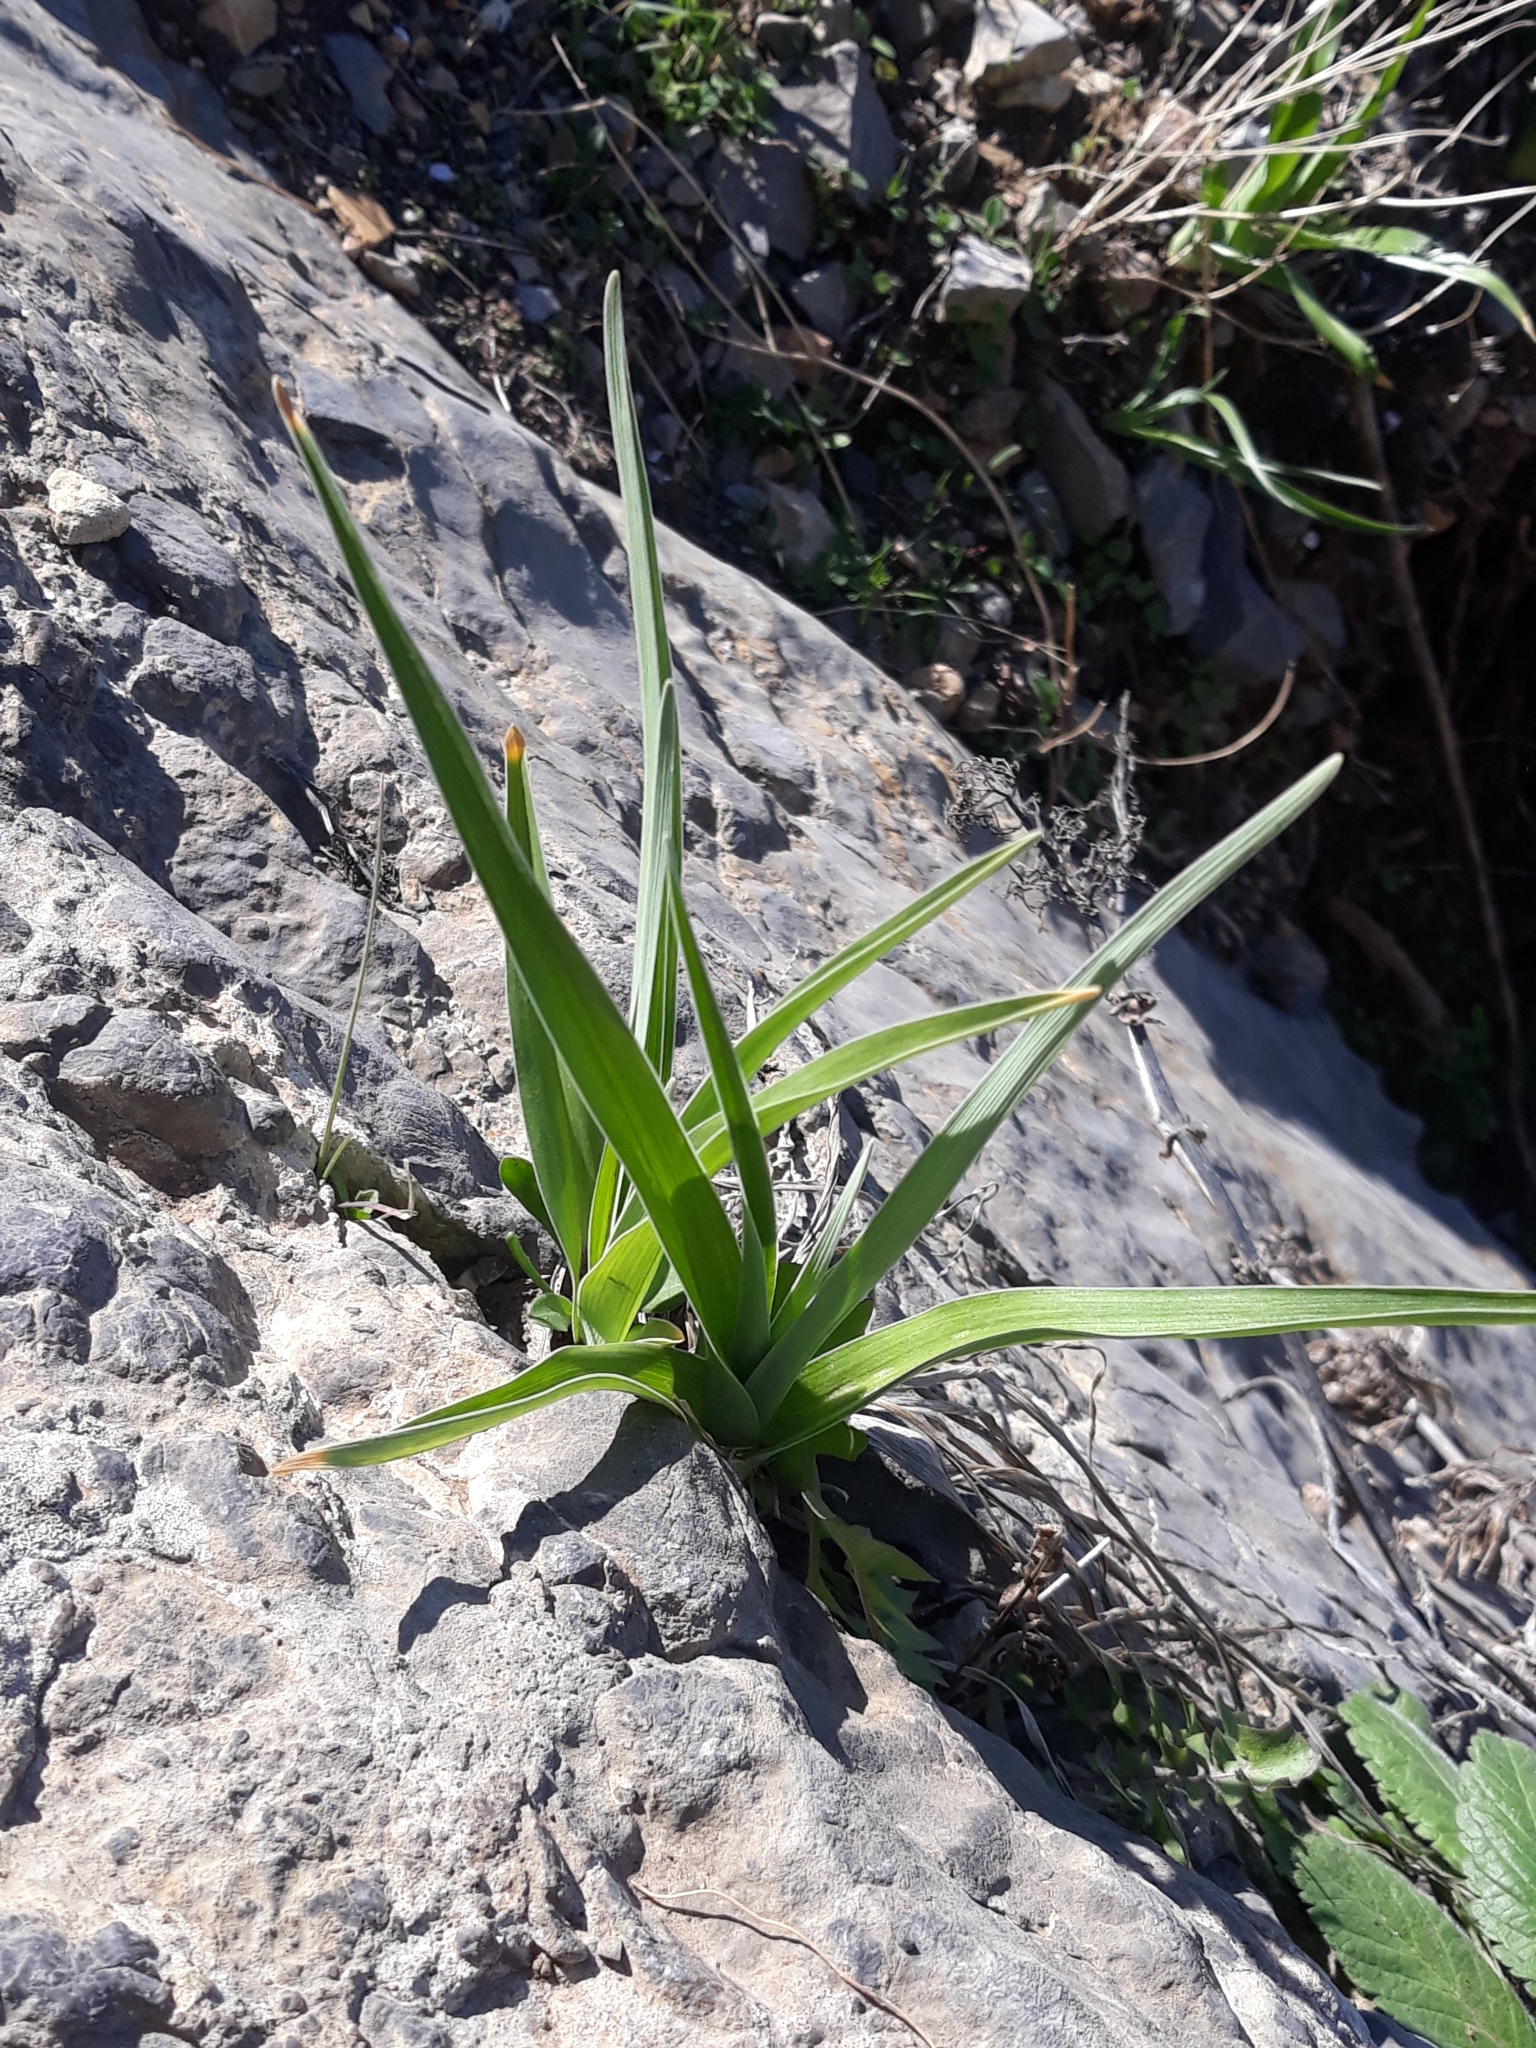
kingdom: Plantae
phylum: Tracheophyta
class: Liliopsida
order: Asparagales
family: Iridaceae
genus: Iris
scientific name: Iris planifolia
